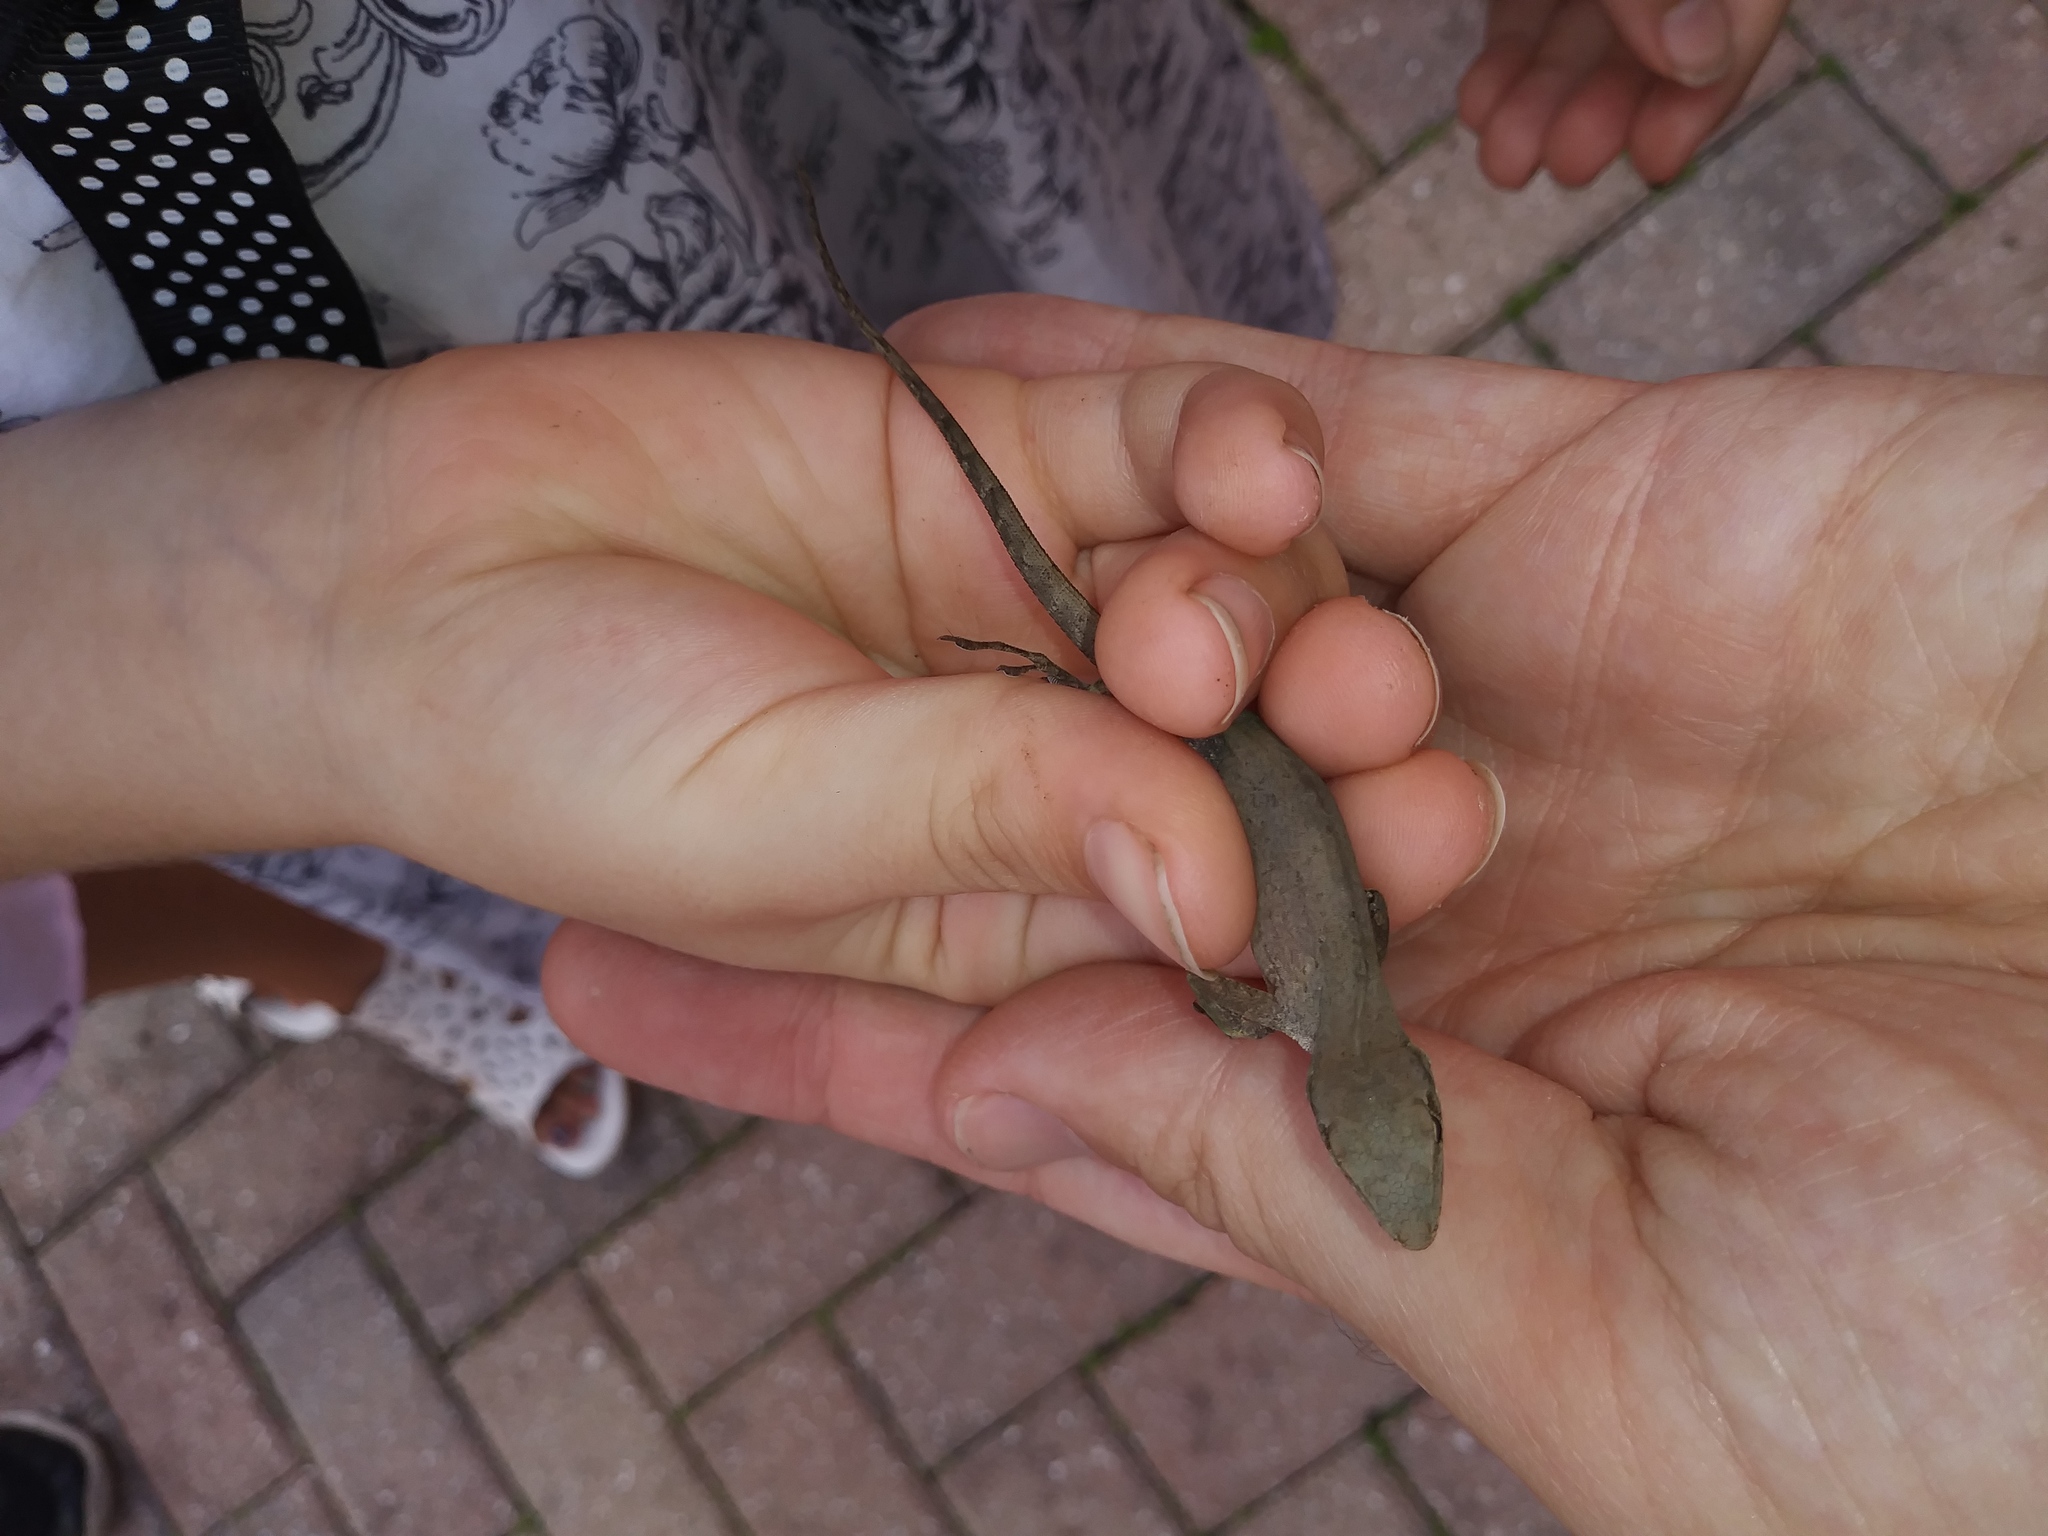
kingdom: Animalia
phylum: Chordata
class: Squamata
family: Dactyloidae
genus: Anolis
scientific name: Anolis sagrei
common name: Brown anole
